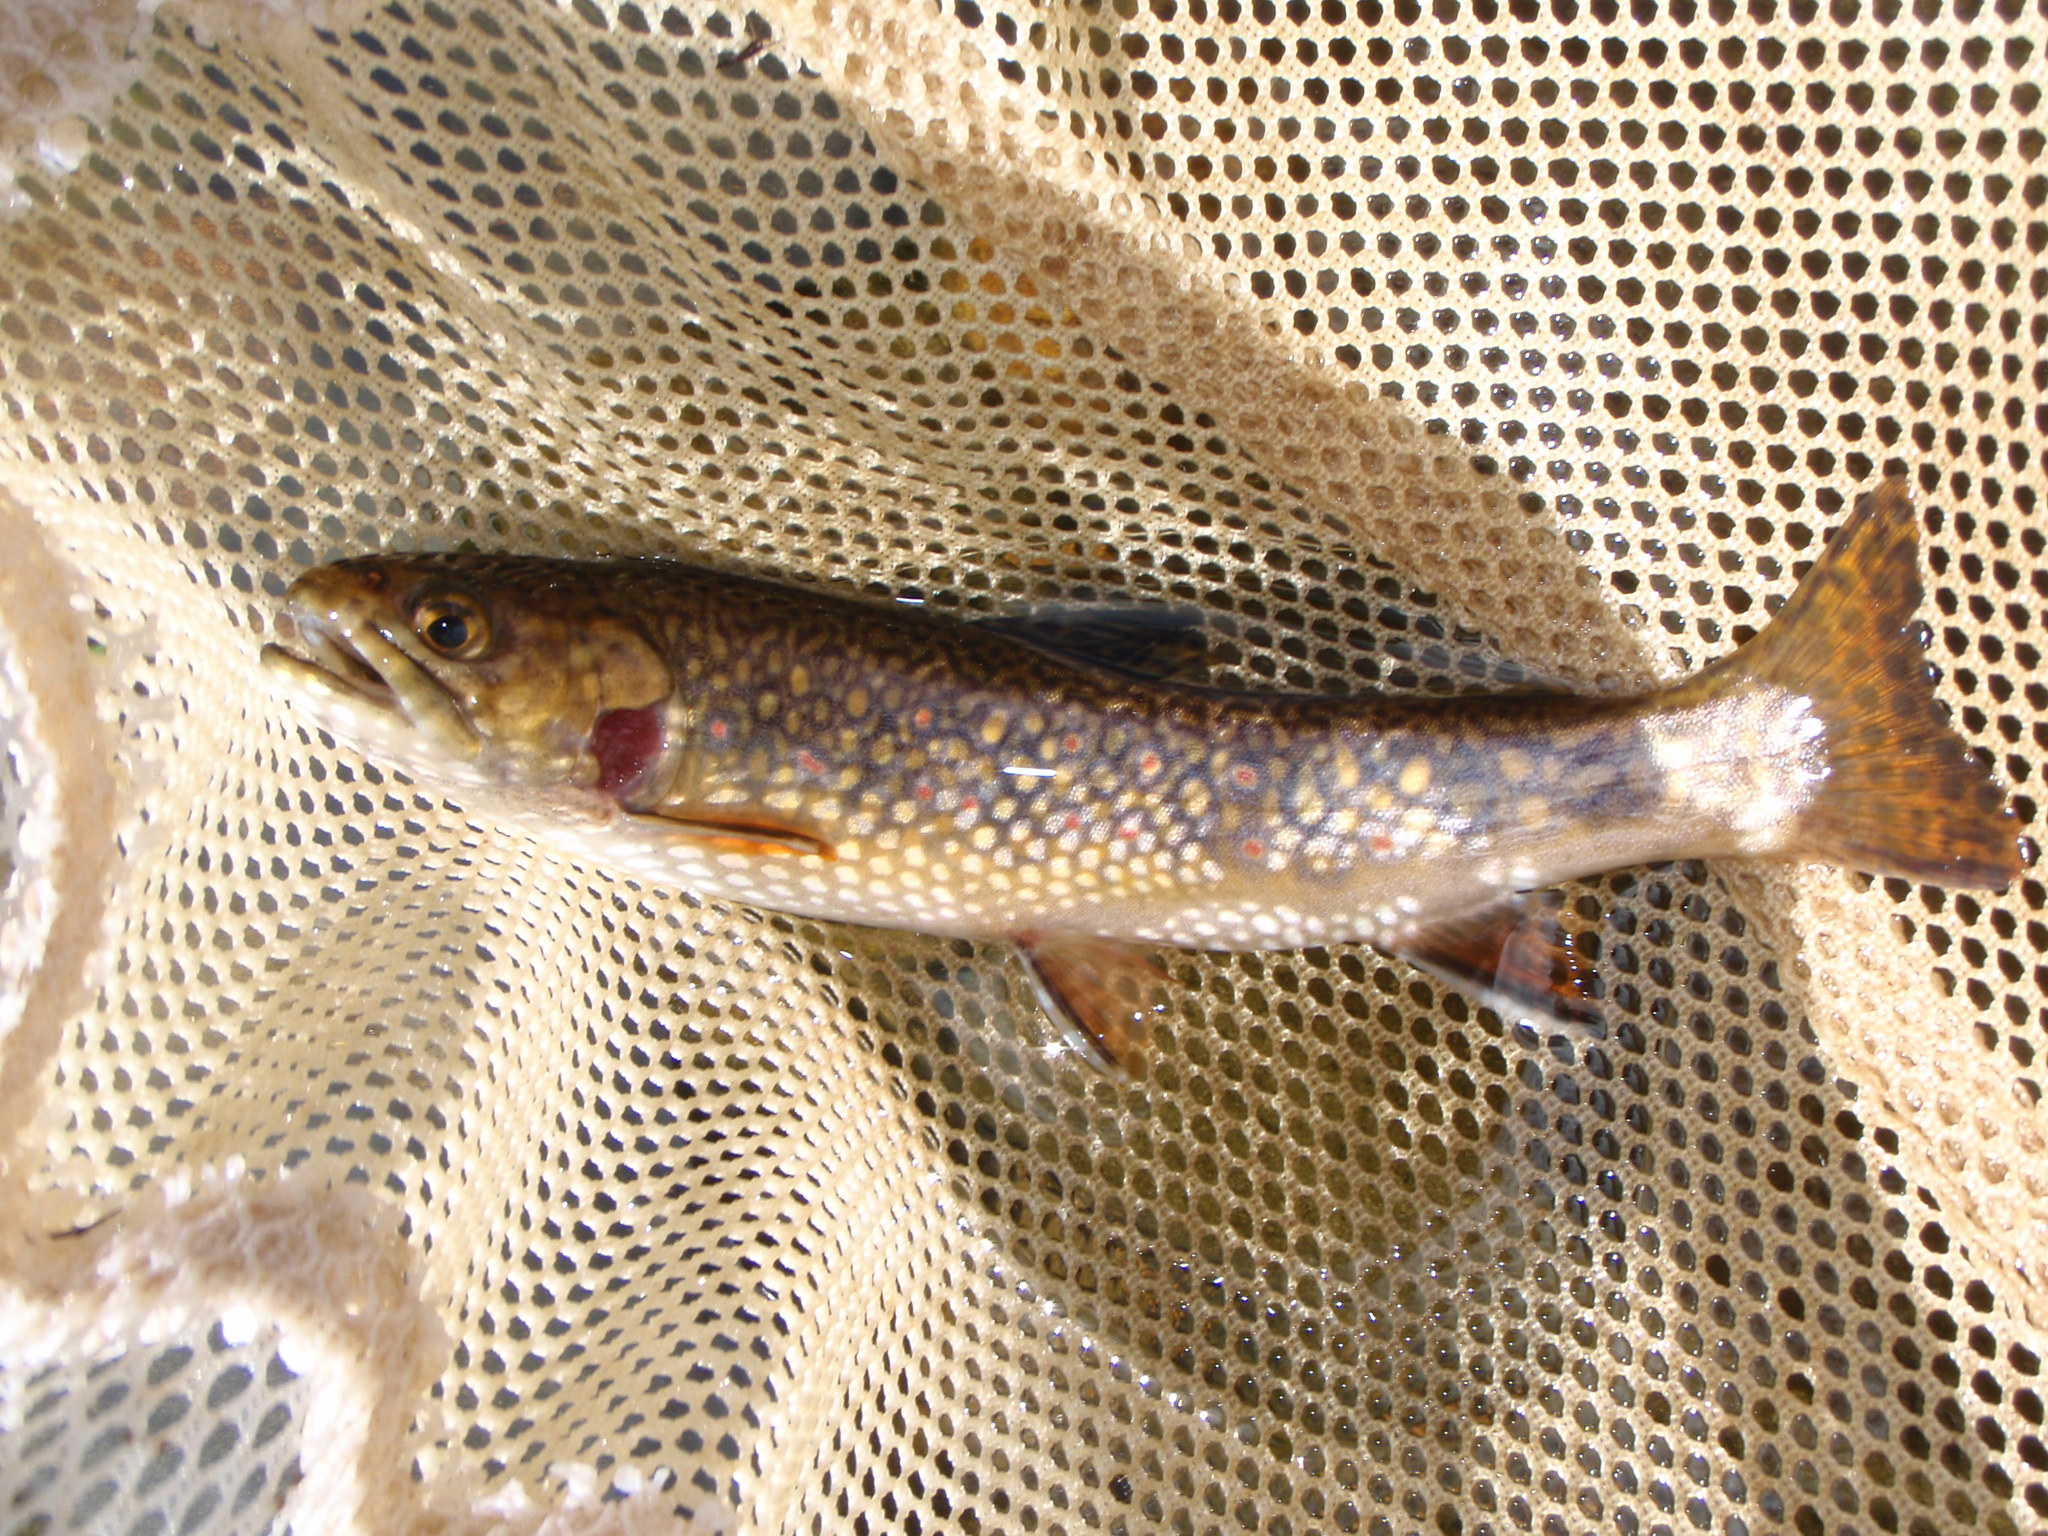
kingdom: Animalia
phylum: Chordata
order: Salmoniformes
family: Salmonidae
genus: Salvelinus
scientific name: Salvelinus fontinalis
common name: Brook trout
